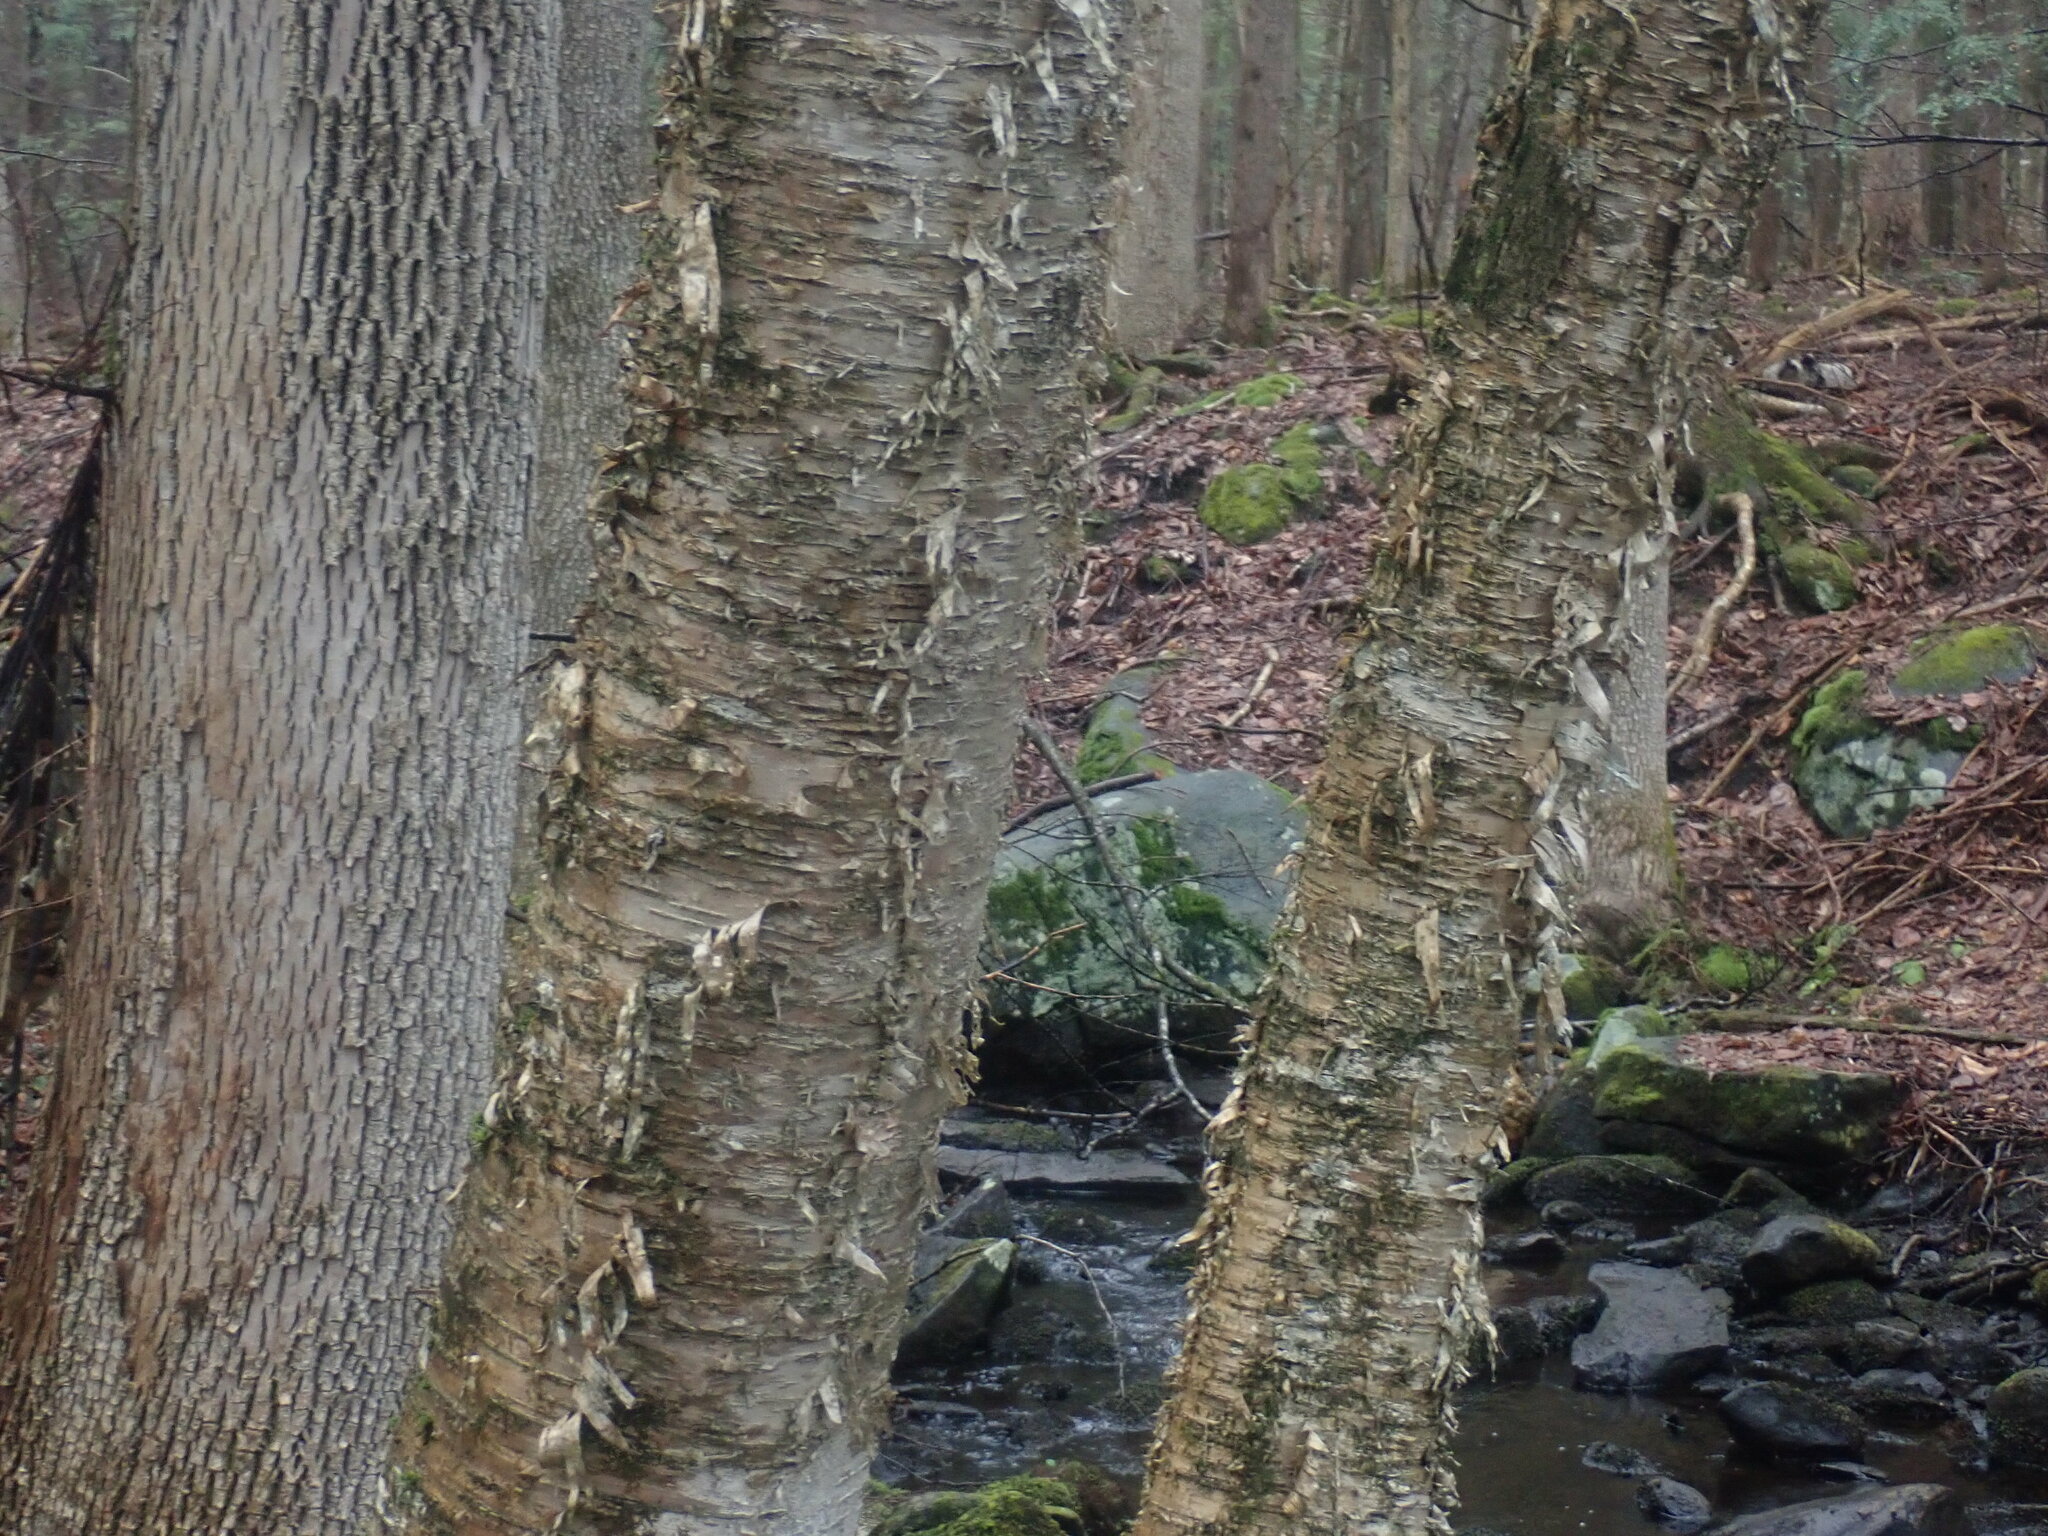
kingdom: Plantae
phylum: Tracheophyta
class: Magnoliopsida
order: Fagales
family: Betulaceae
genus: Betula
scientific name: Betula alleghaniensis
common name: Yellow birch
